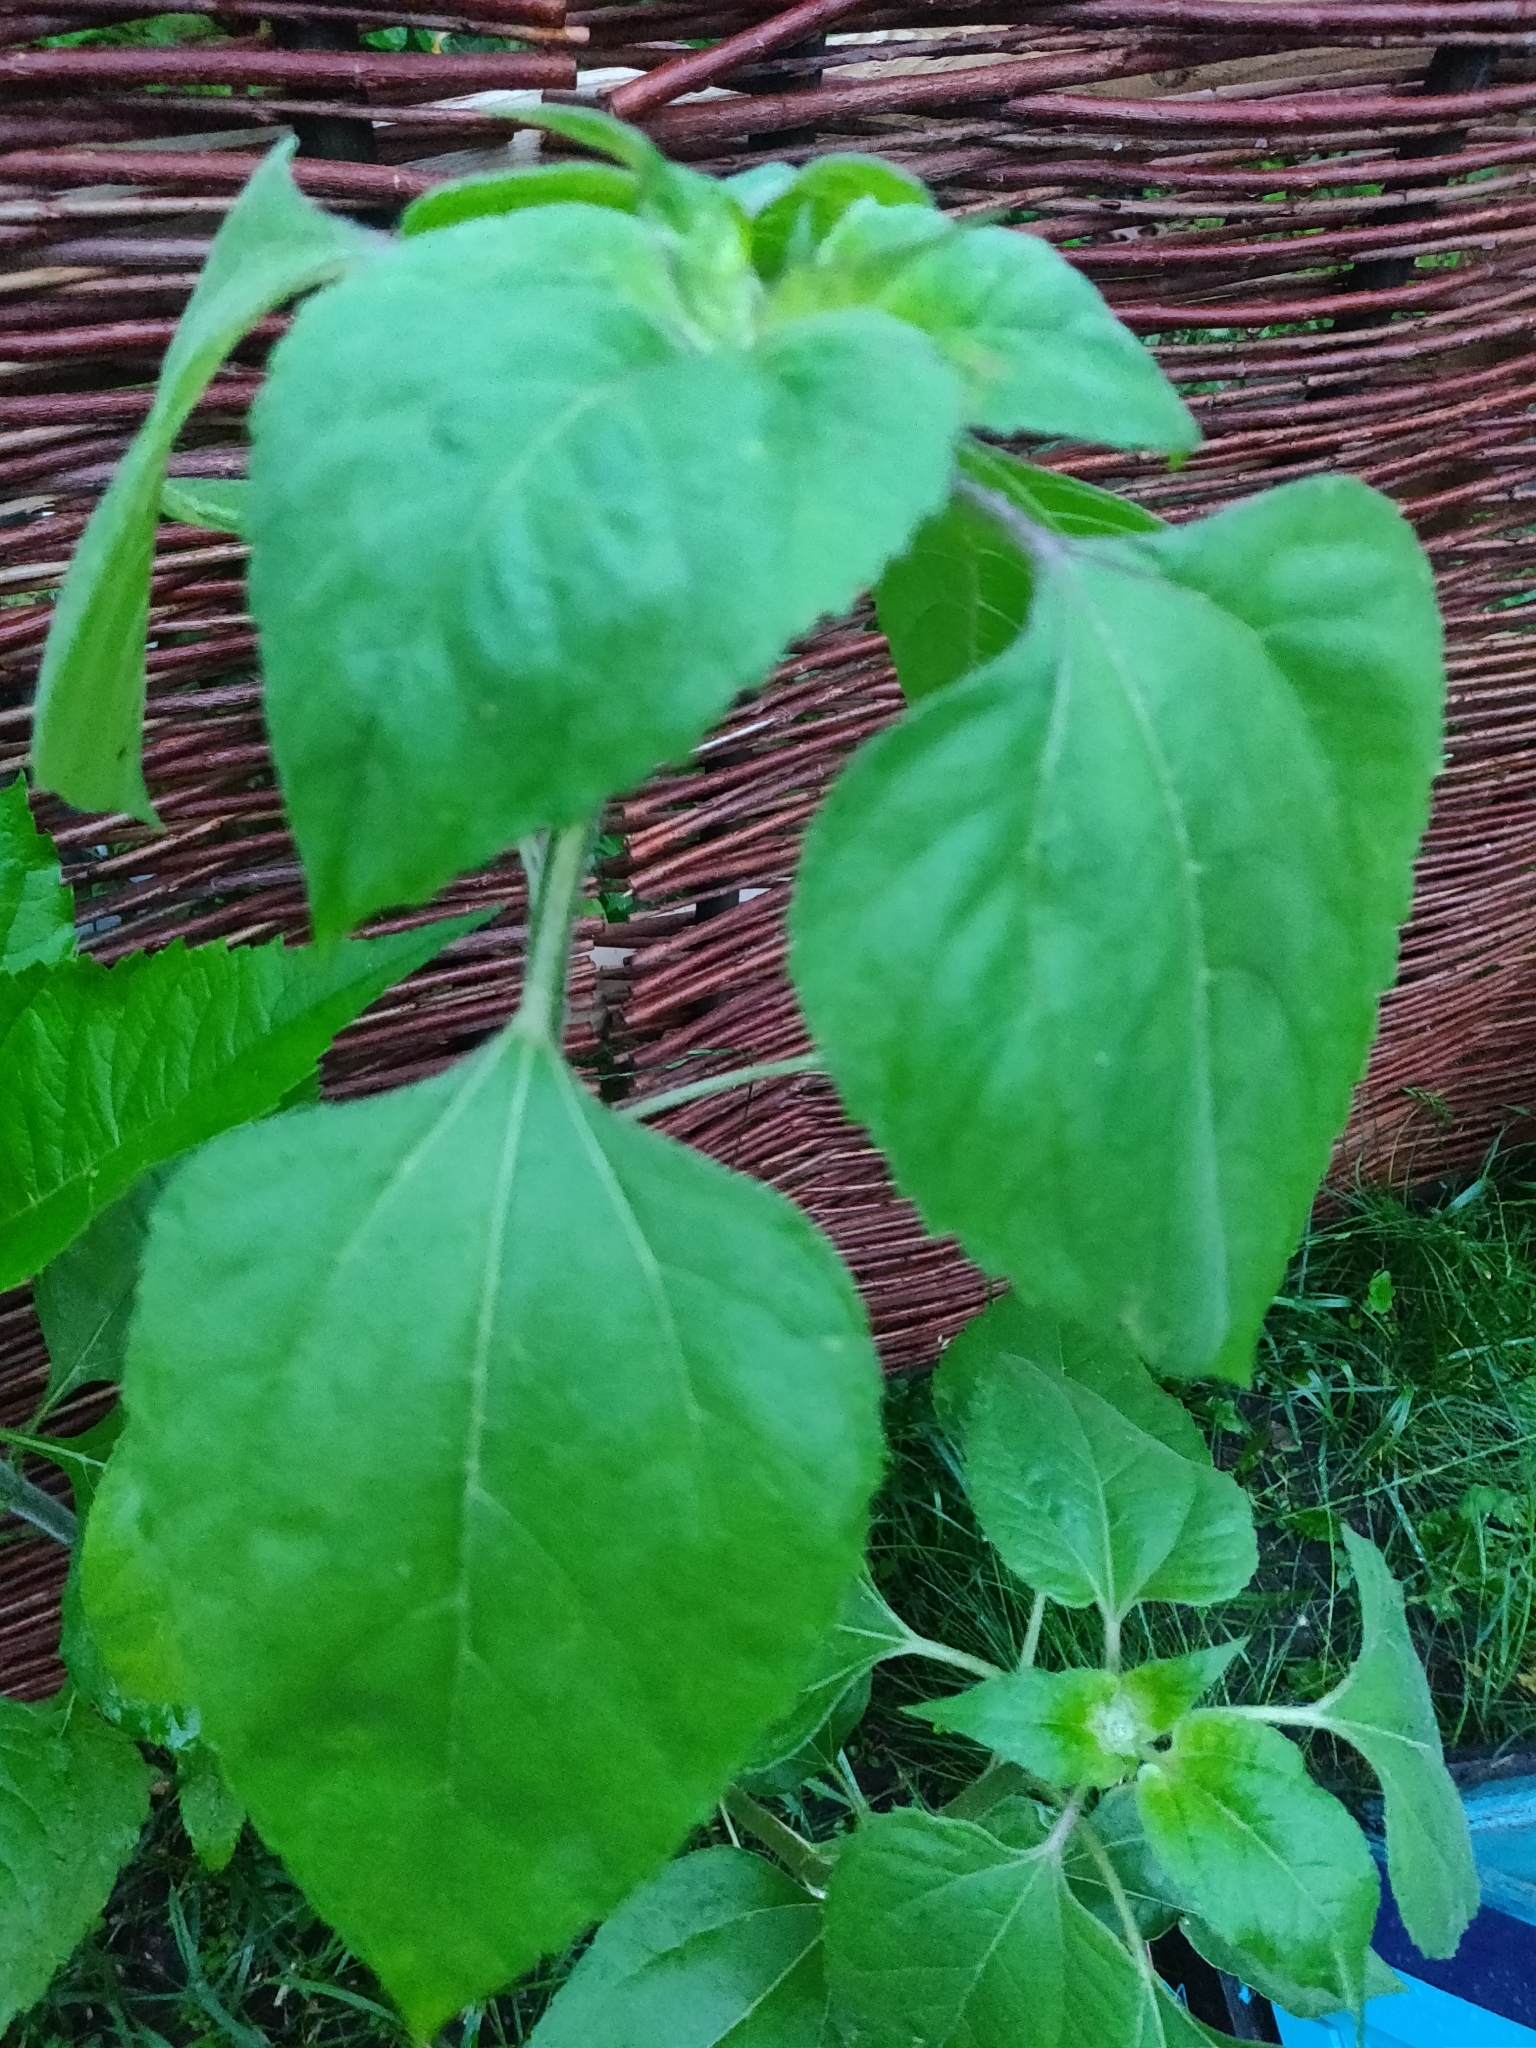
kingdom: Plantae
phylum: Tracheophyta
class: Magnoliopsida
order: Asterales
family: Asteraceae
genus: Helianthus
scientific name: Helianthus annuus
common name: Sunflower
